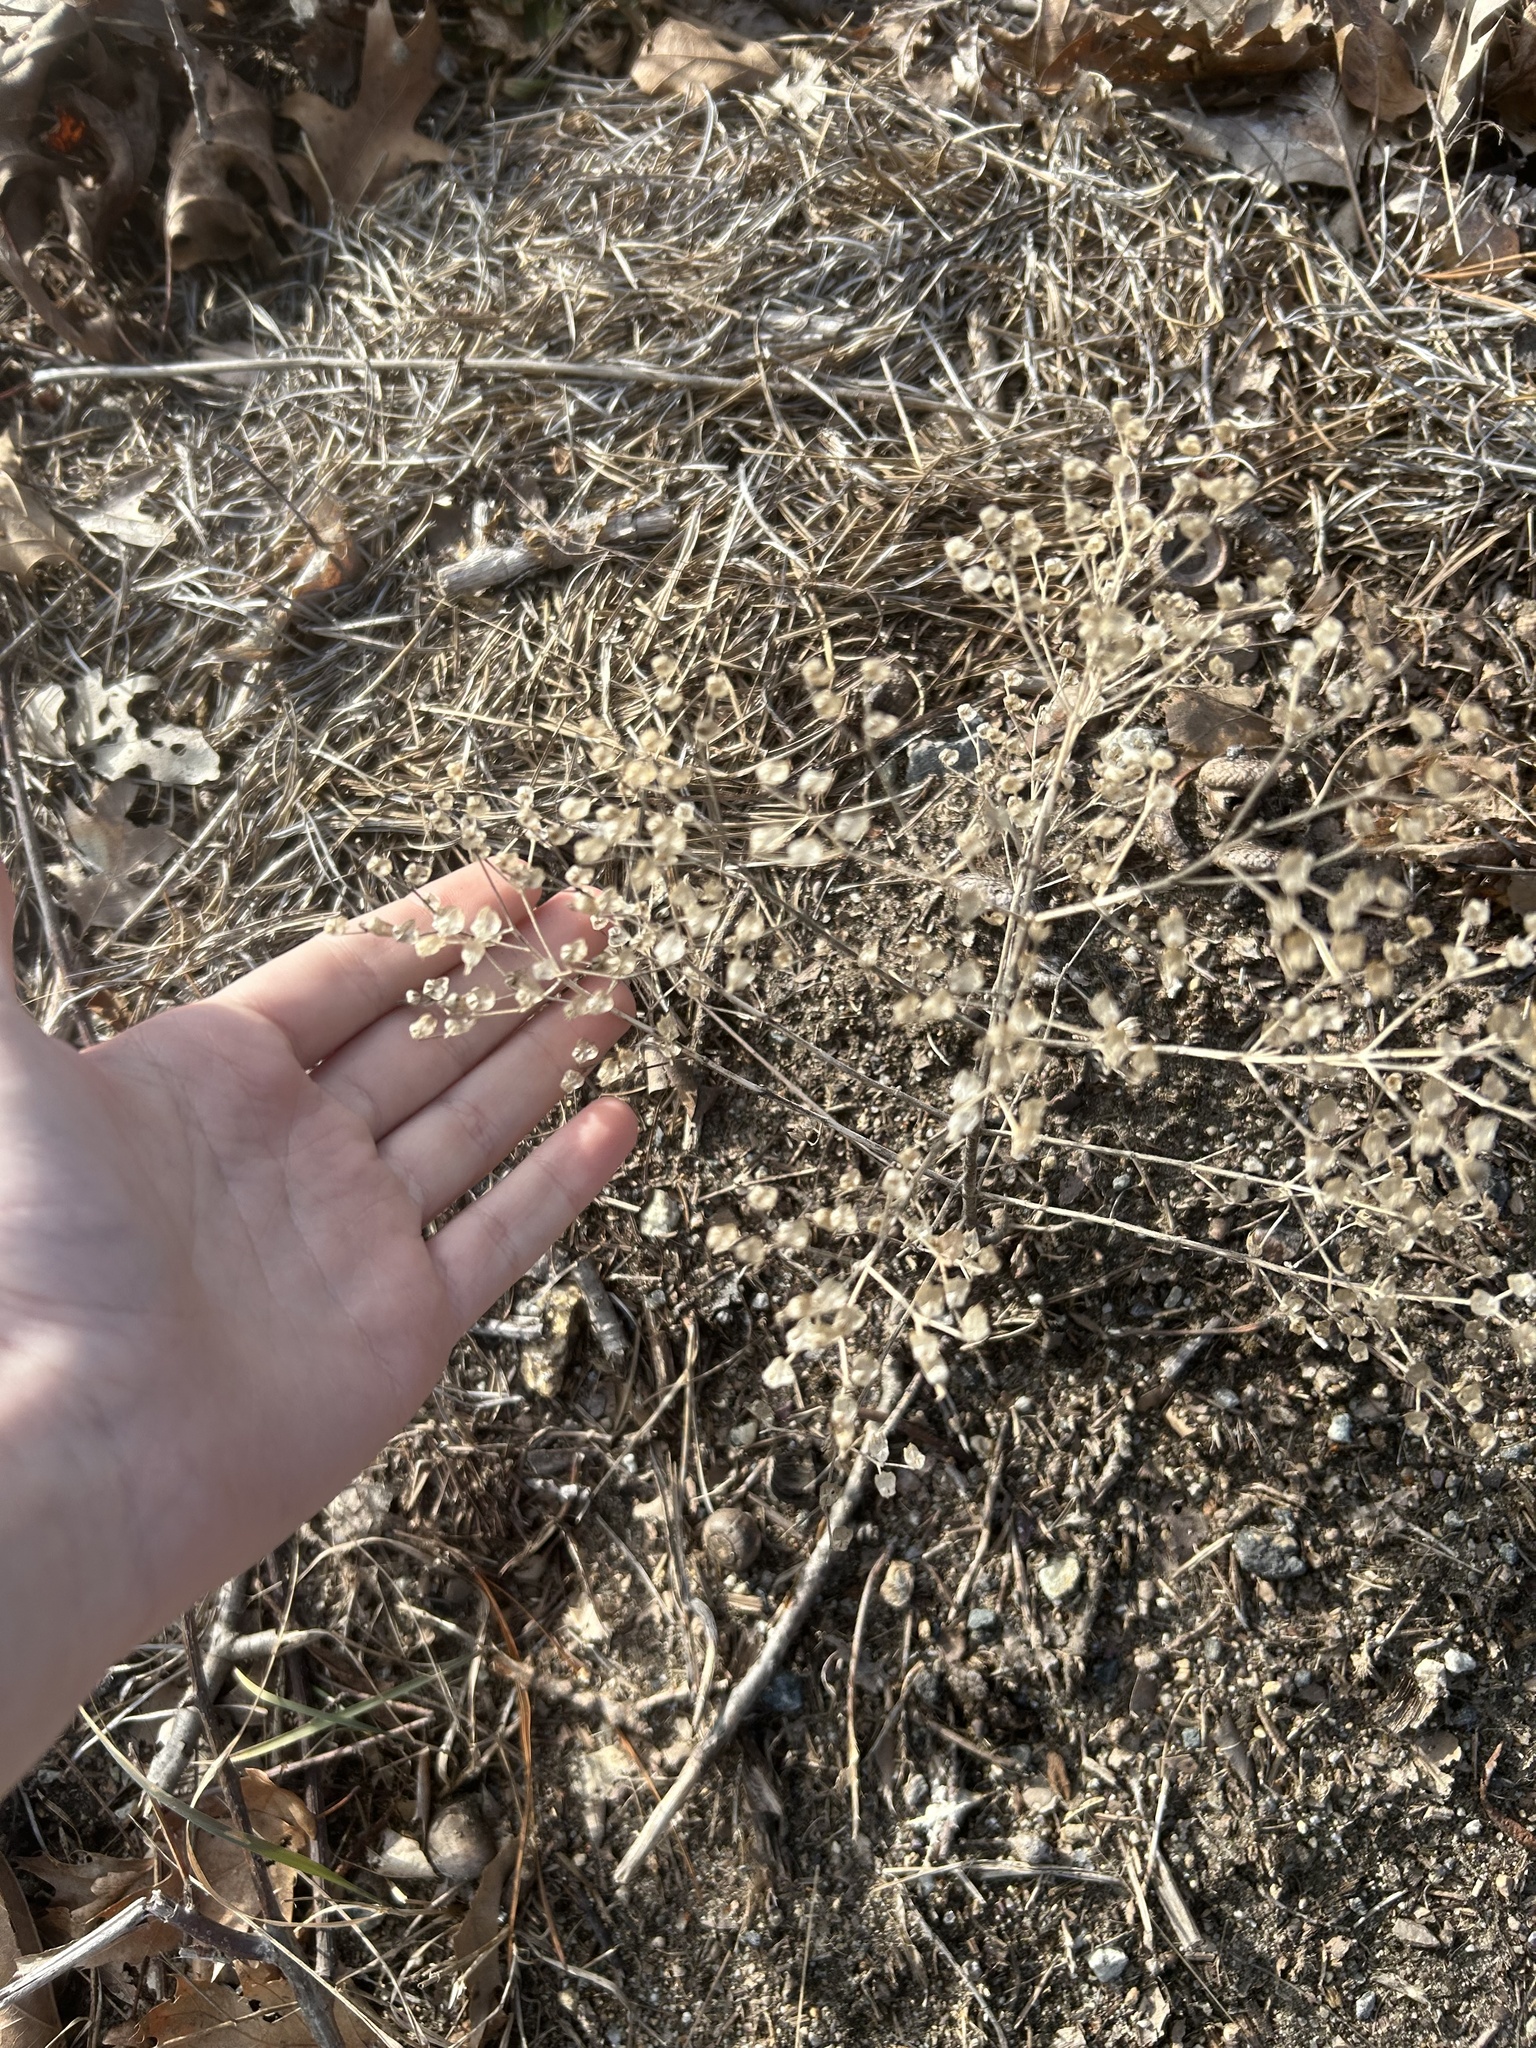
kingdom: Plantae
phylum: Tracheophyta
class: Magnoliopsida
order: Lamiales
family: Lamiaceae
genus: Trichostema
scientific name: Trichostema dichotomum
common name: Bastard pennyroyal
